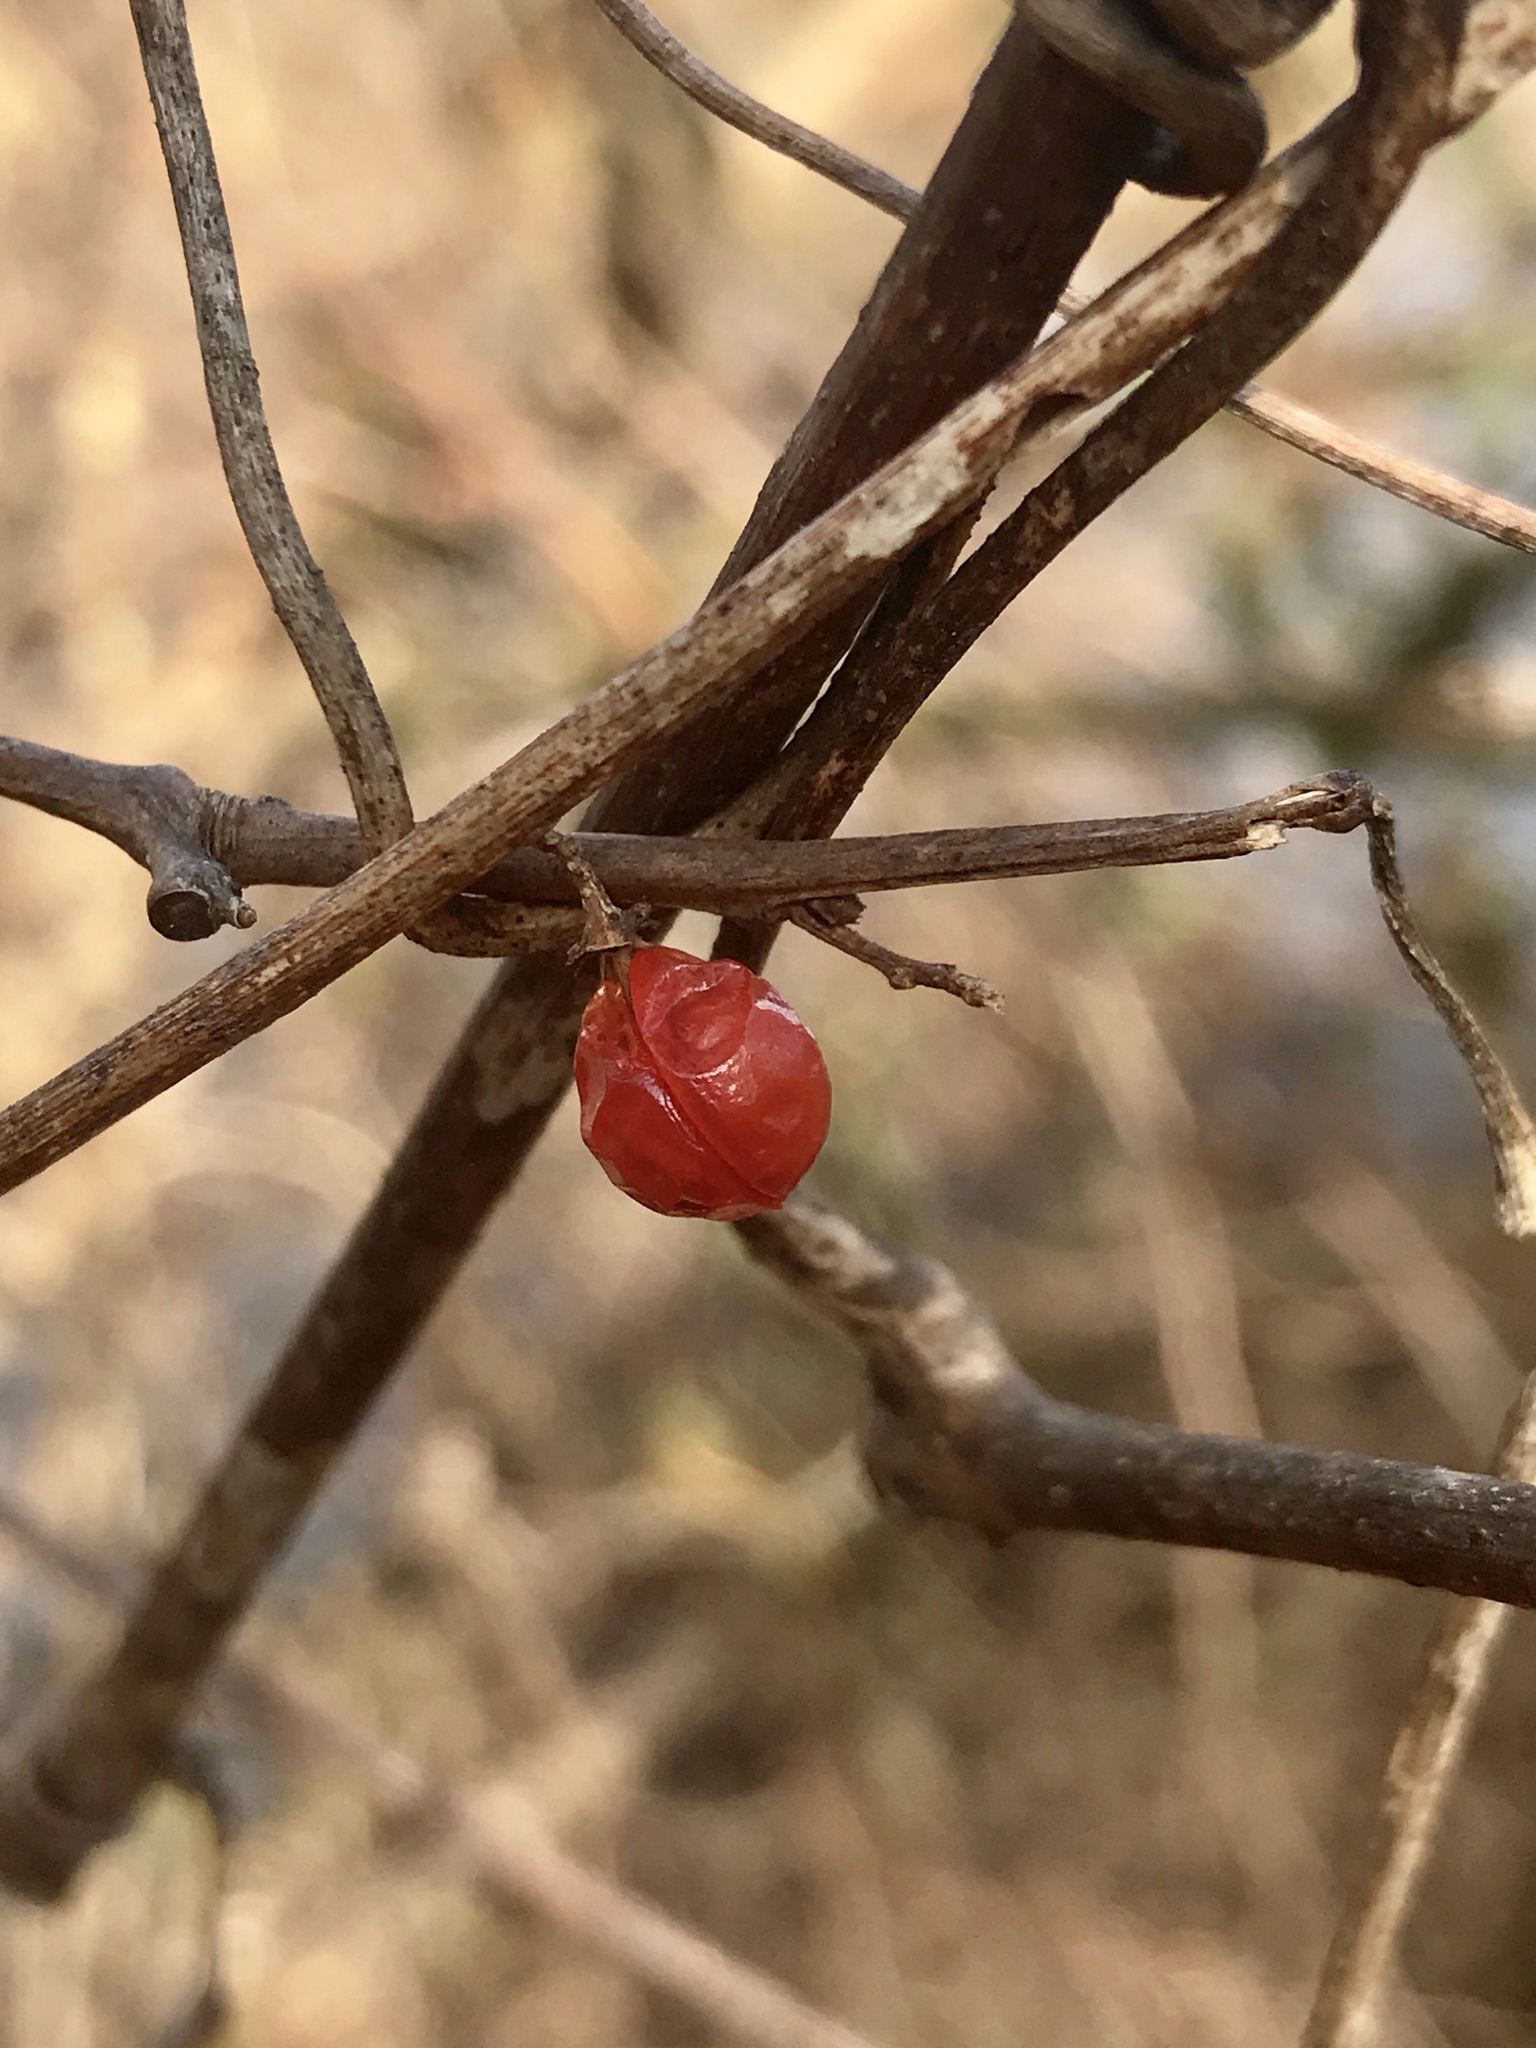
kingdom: Plantae
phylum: Tracheophyta
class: Magnoliopsida
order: Celastrales
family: Celastraceae
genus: Celastrus
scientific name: Celastrus orbiculatus
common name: Oriental bittersweet
